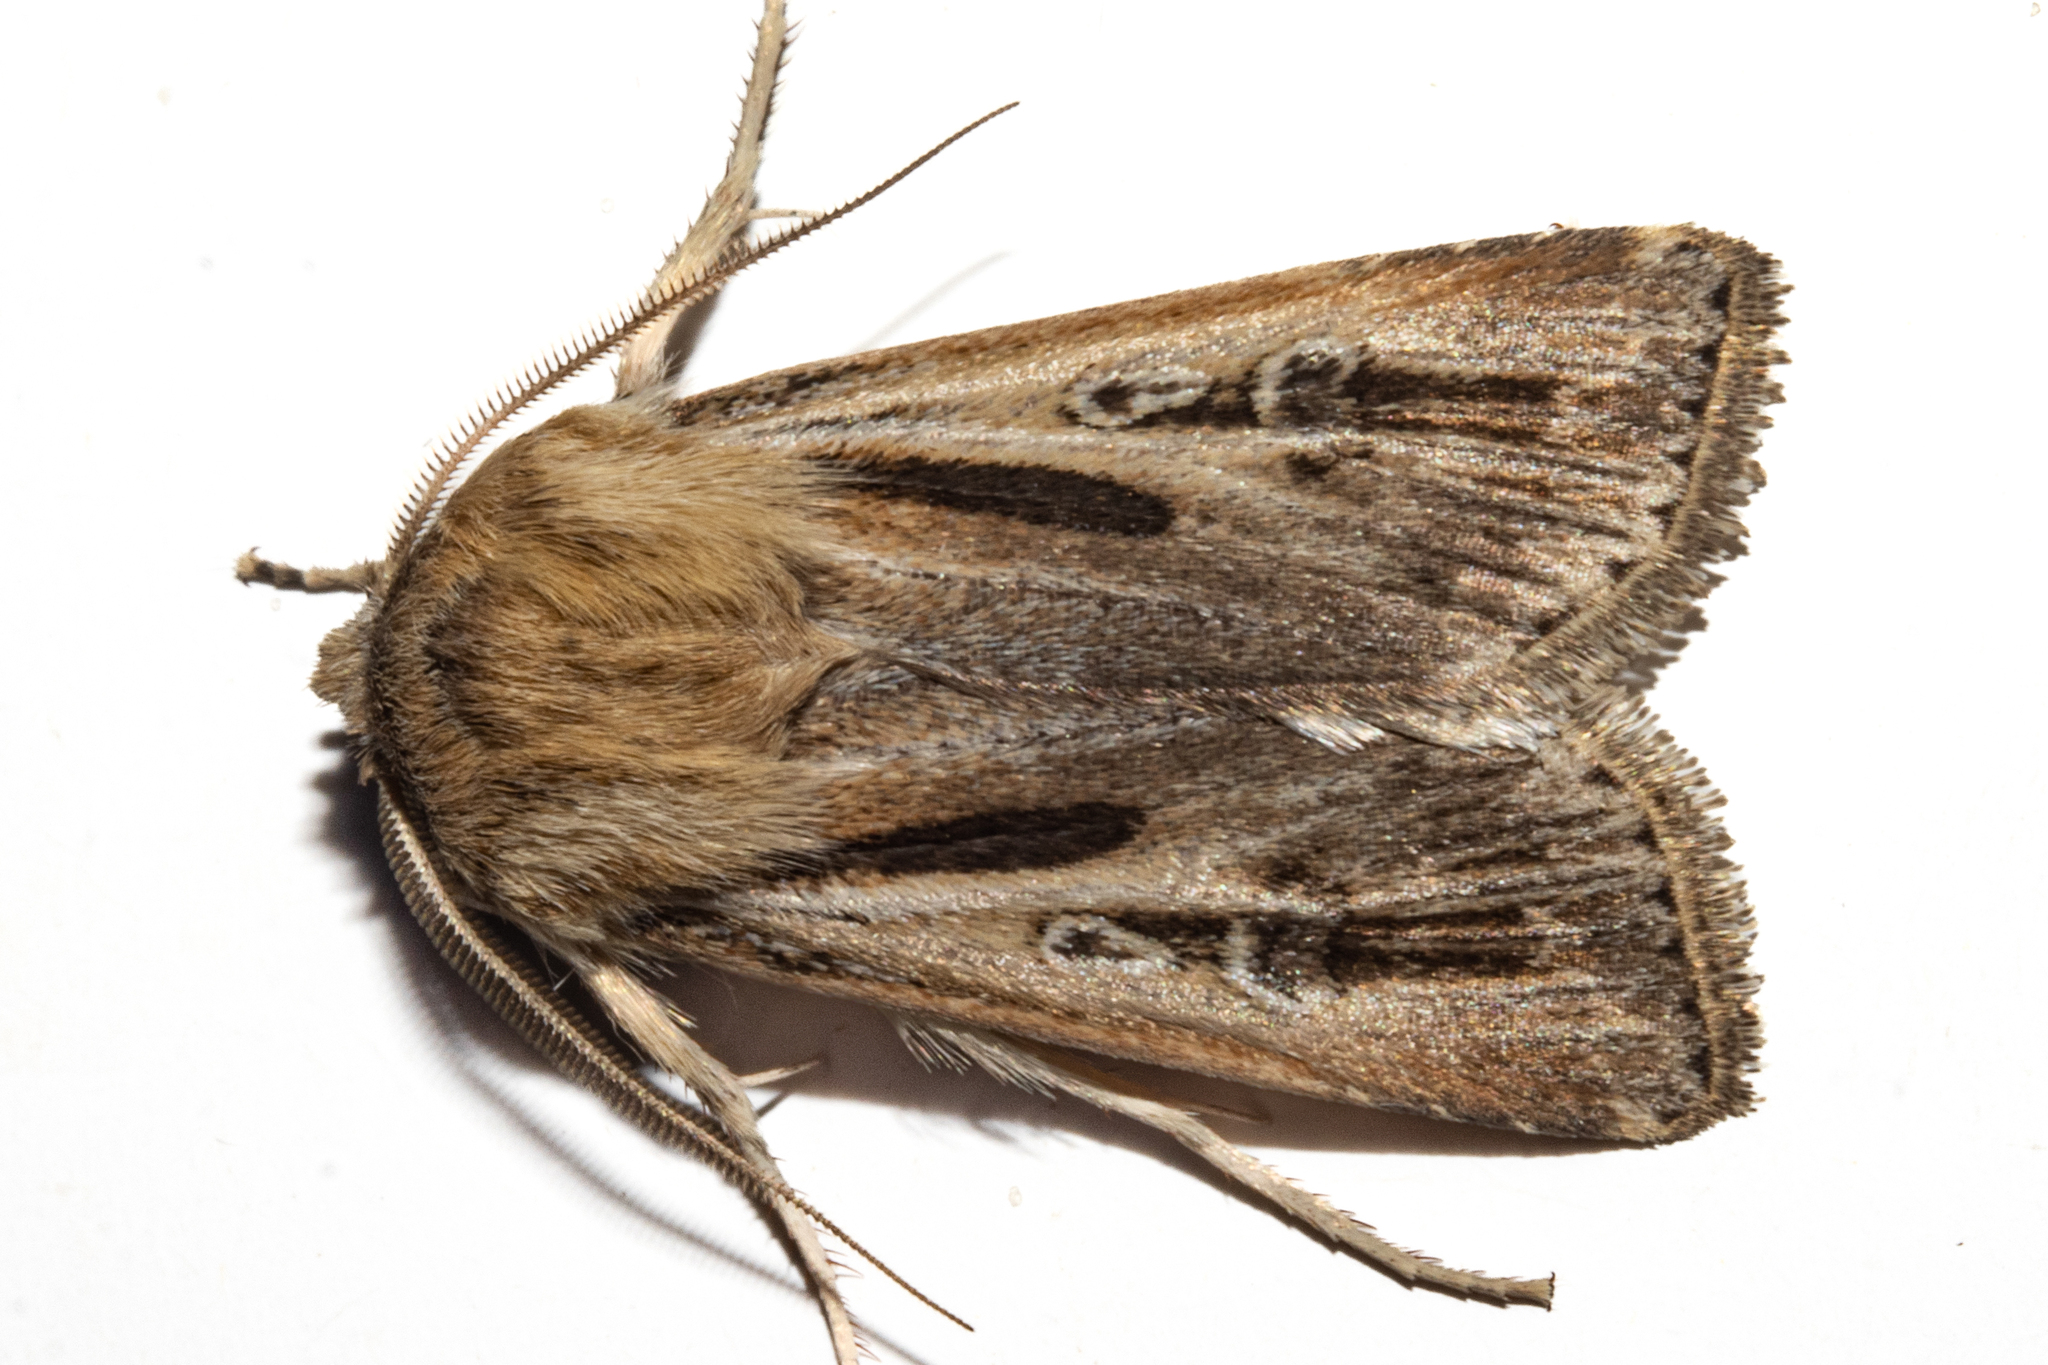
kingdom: Animalia
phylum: Arthropoda
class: Insecta
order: Lepidoptera
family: Noctuidae
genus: Agrotis
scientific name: Agrotis innominata
